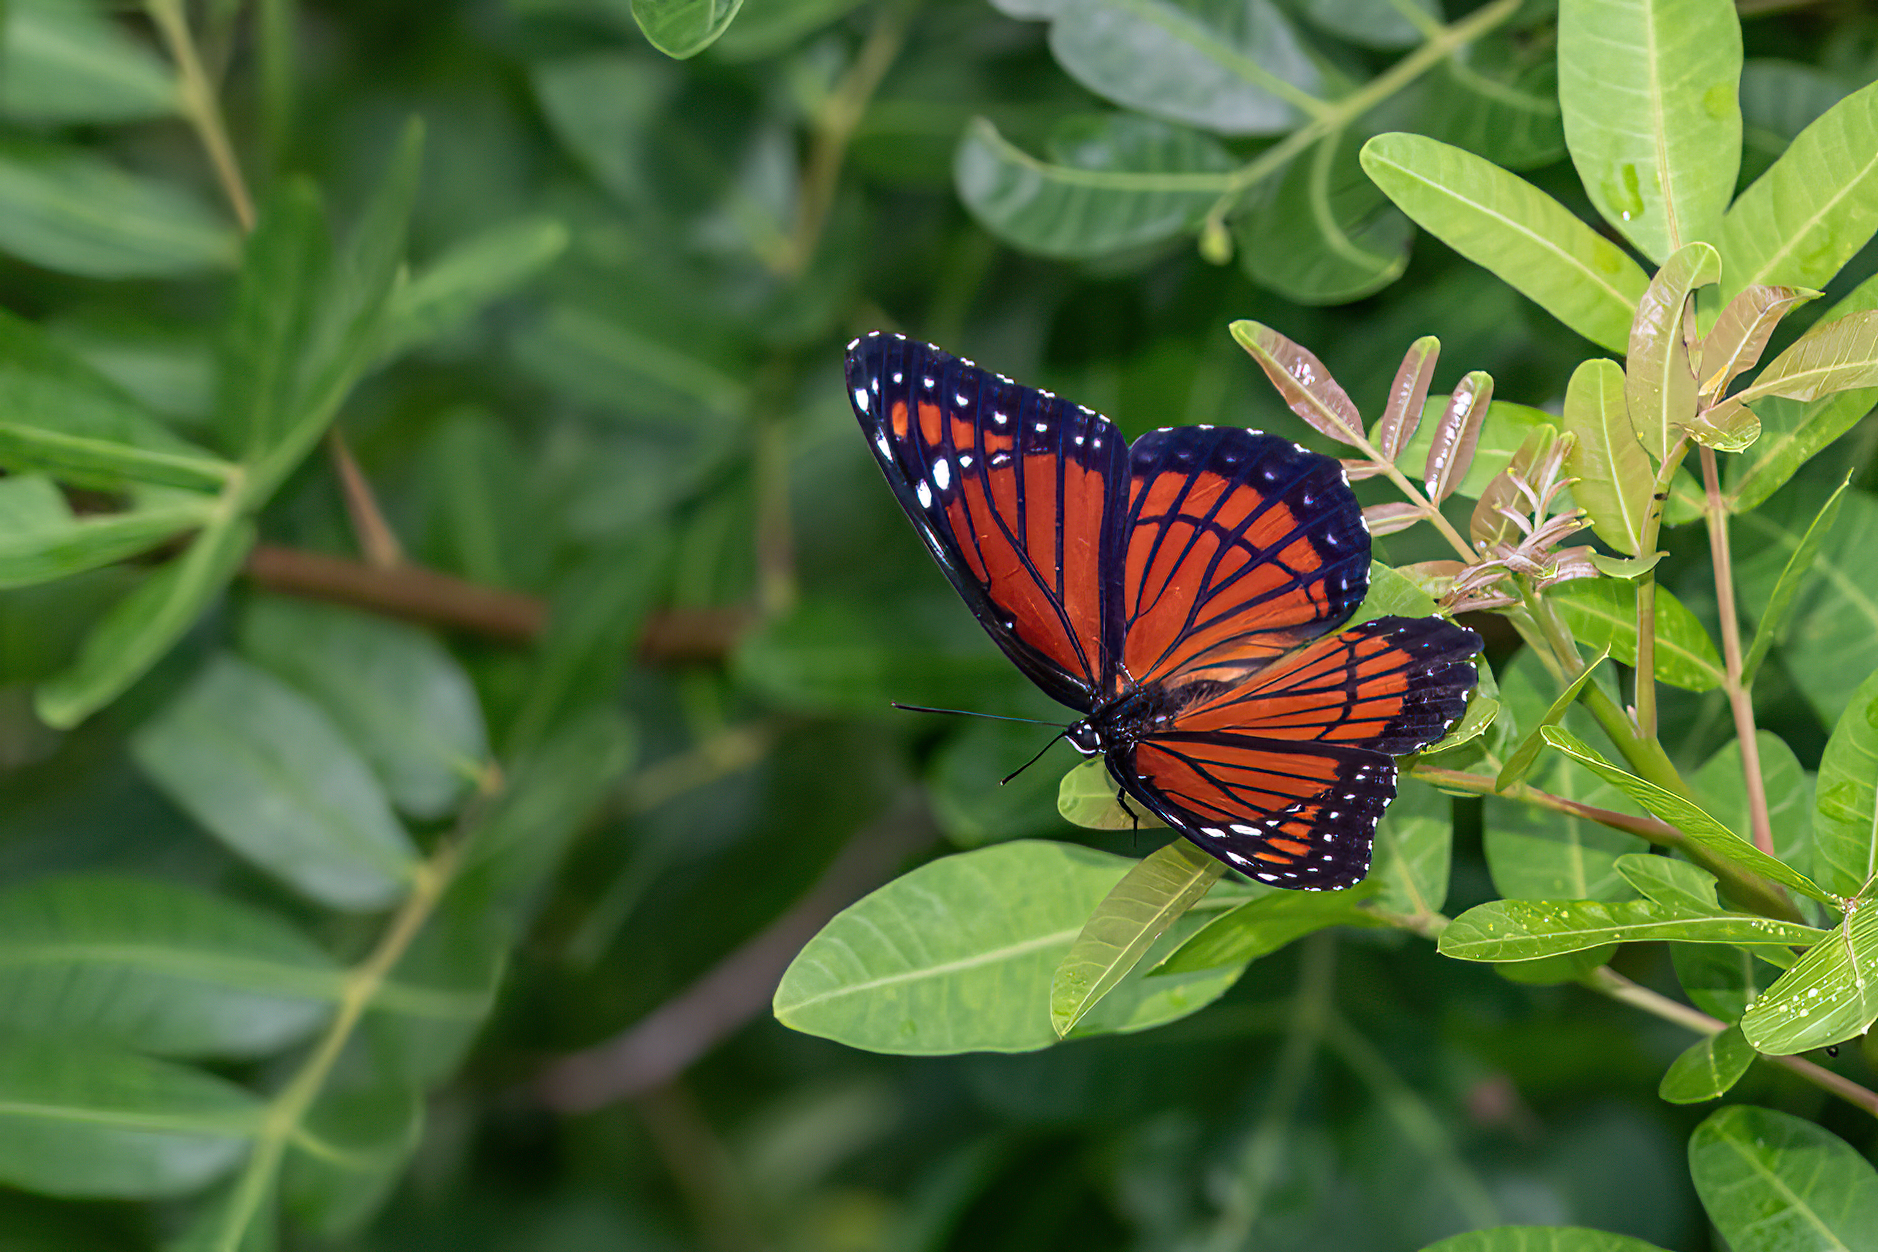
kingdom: Animalia
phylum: Arthropoda
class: Insecta
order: Lepidoptera
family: Nymphalidae
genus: Limenitis
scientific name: Limenitis archippus
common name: Viceroy
